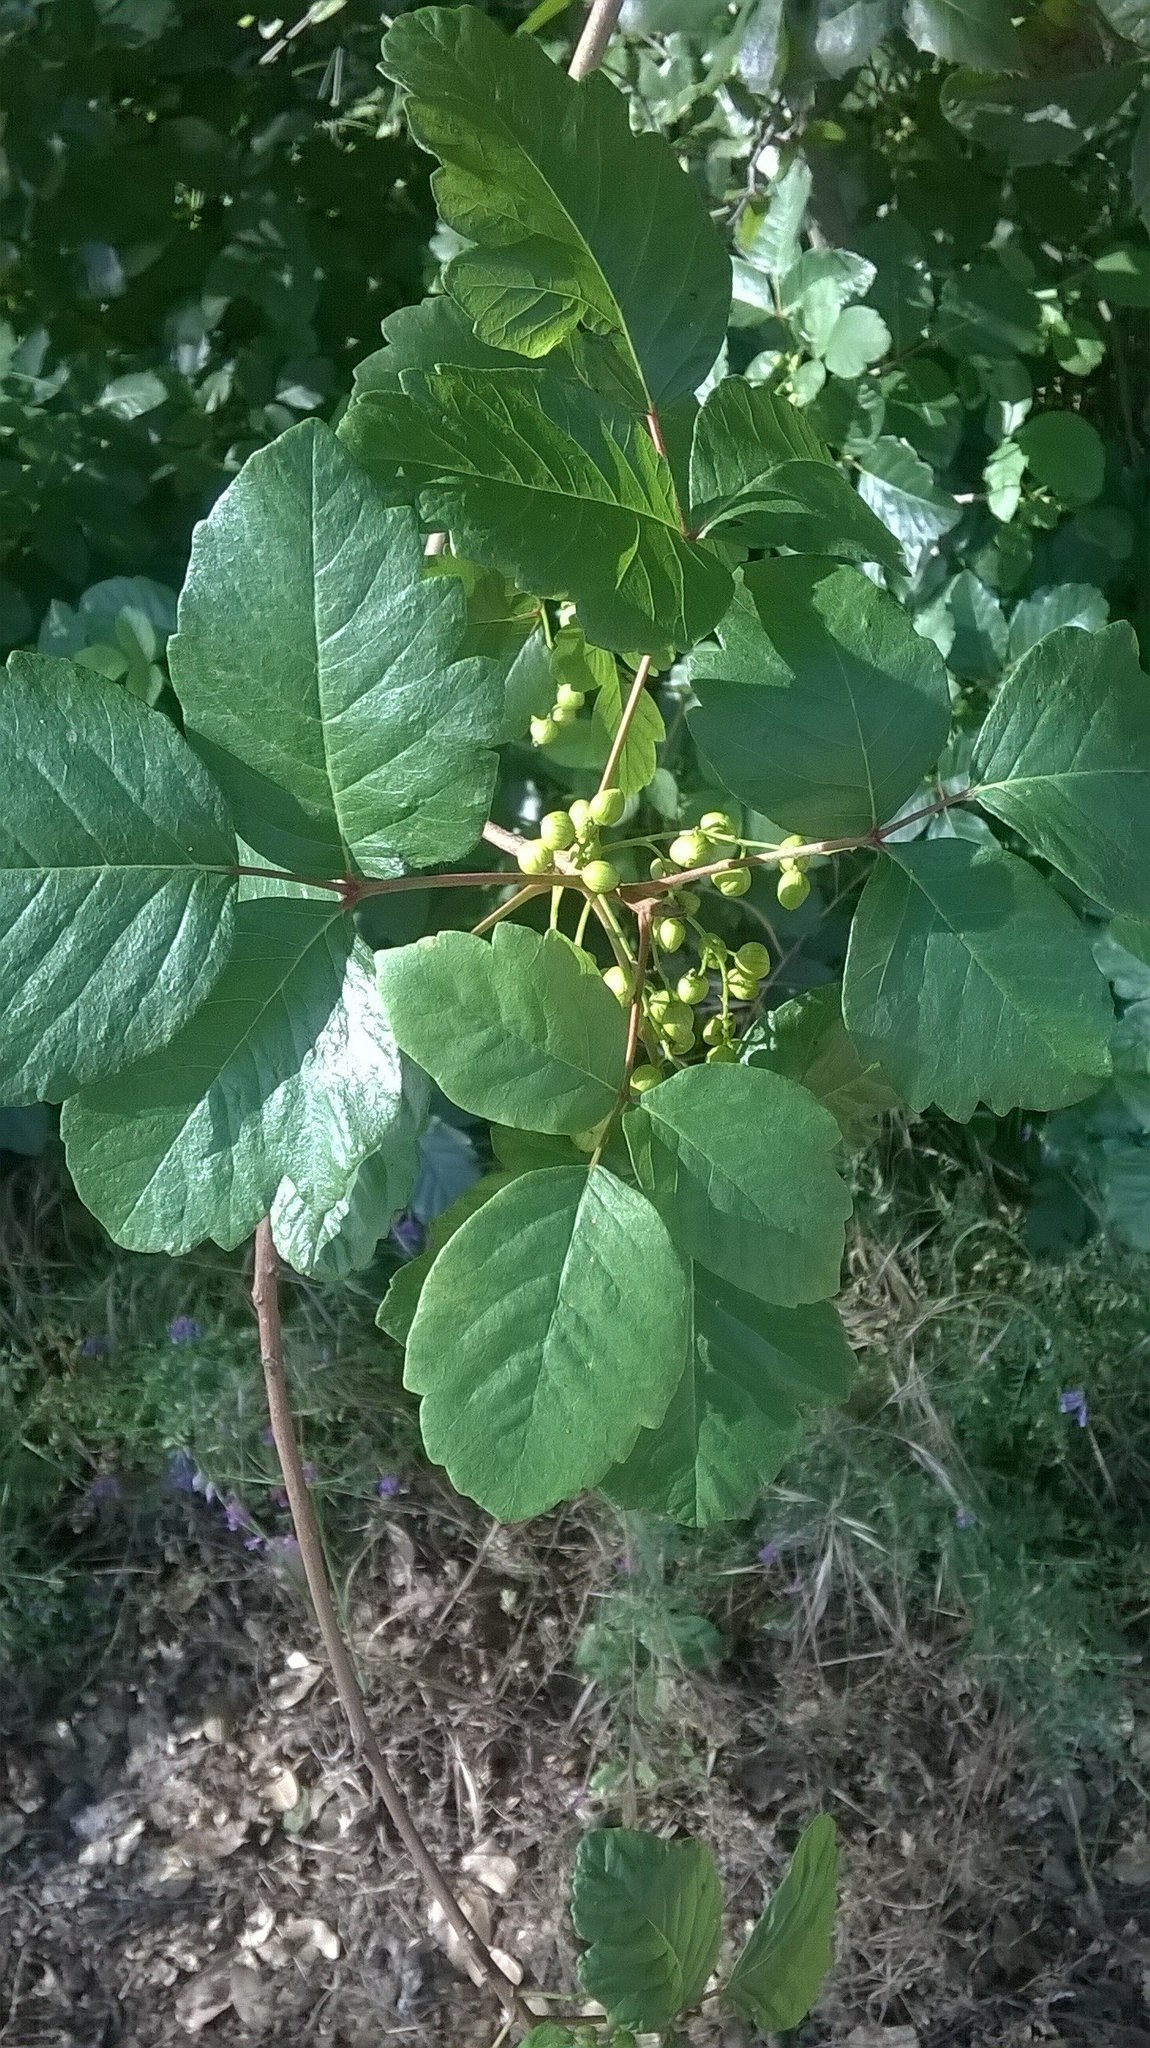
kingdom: Plantae
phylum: Tracheophyta
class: Magnoliopsida
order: Sapindales
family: Anacardiaceae
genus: Toxicodendron
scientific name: Toxicodendron diversilobum
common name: Pacific poison-oak
